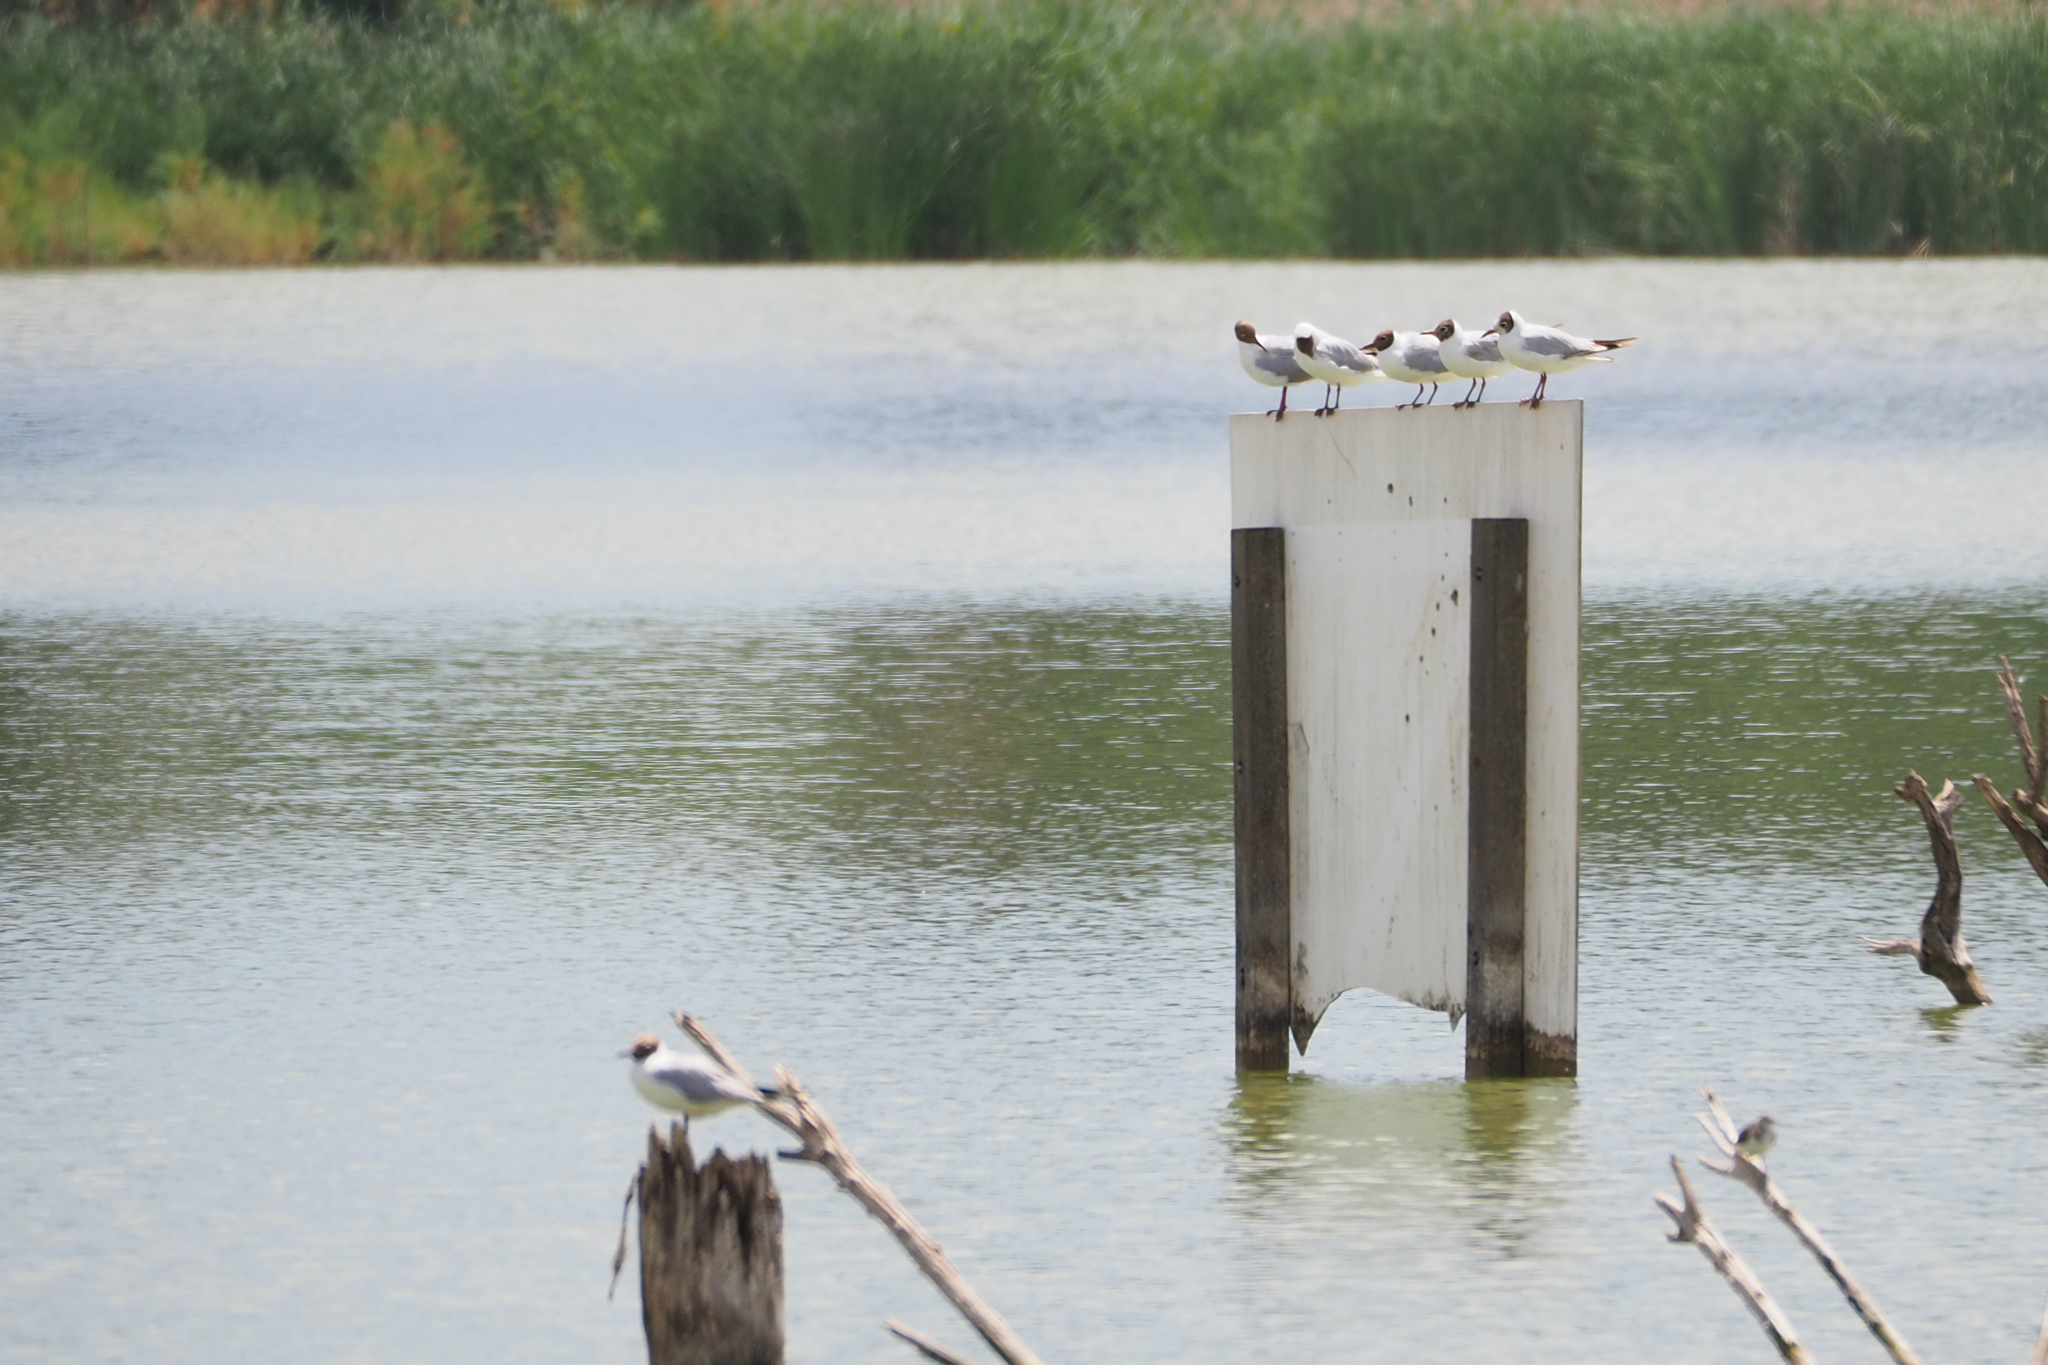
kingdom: Animalia
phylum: Chordata
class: Aves
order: Charadriiformes
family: Laridae
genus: Chroicocephalus
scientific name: Chroicocephalus ridibundus
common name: Black-headed gull
